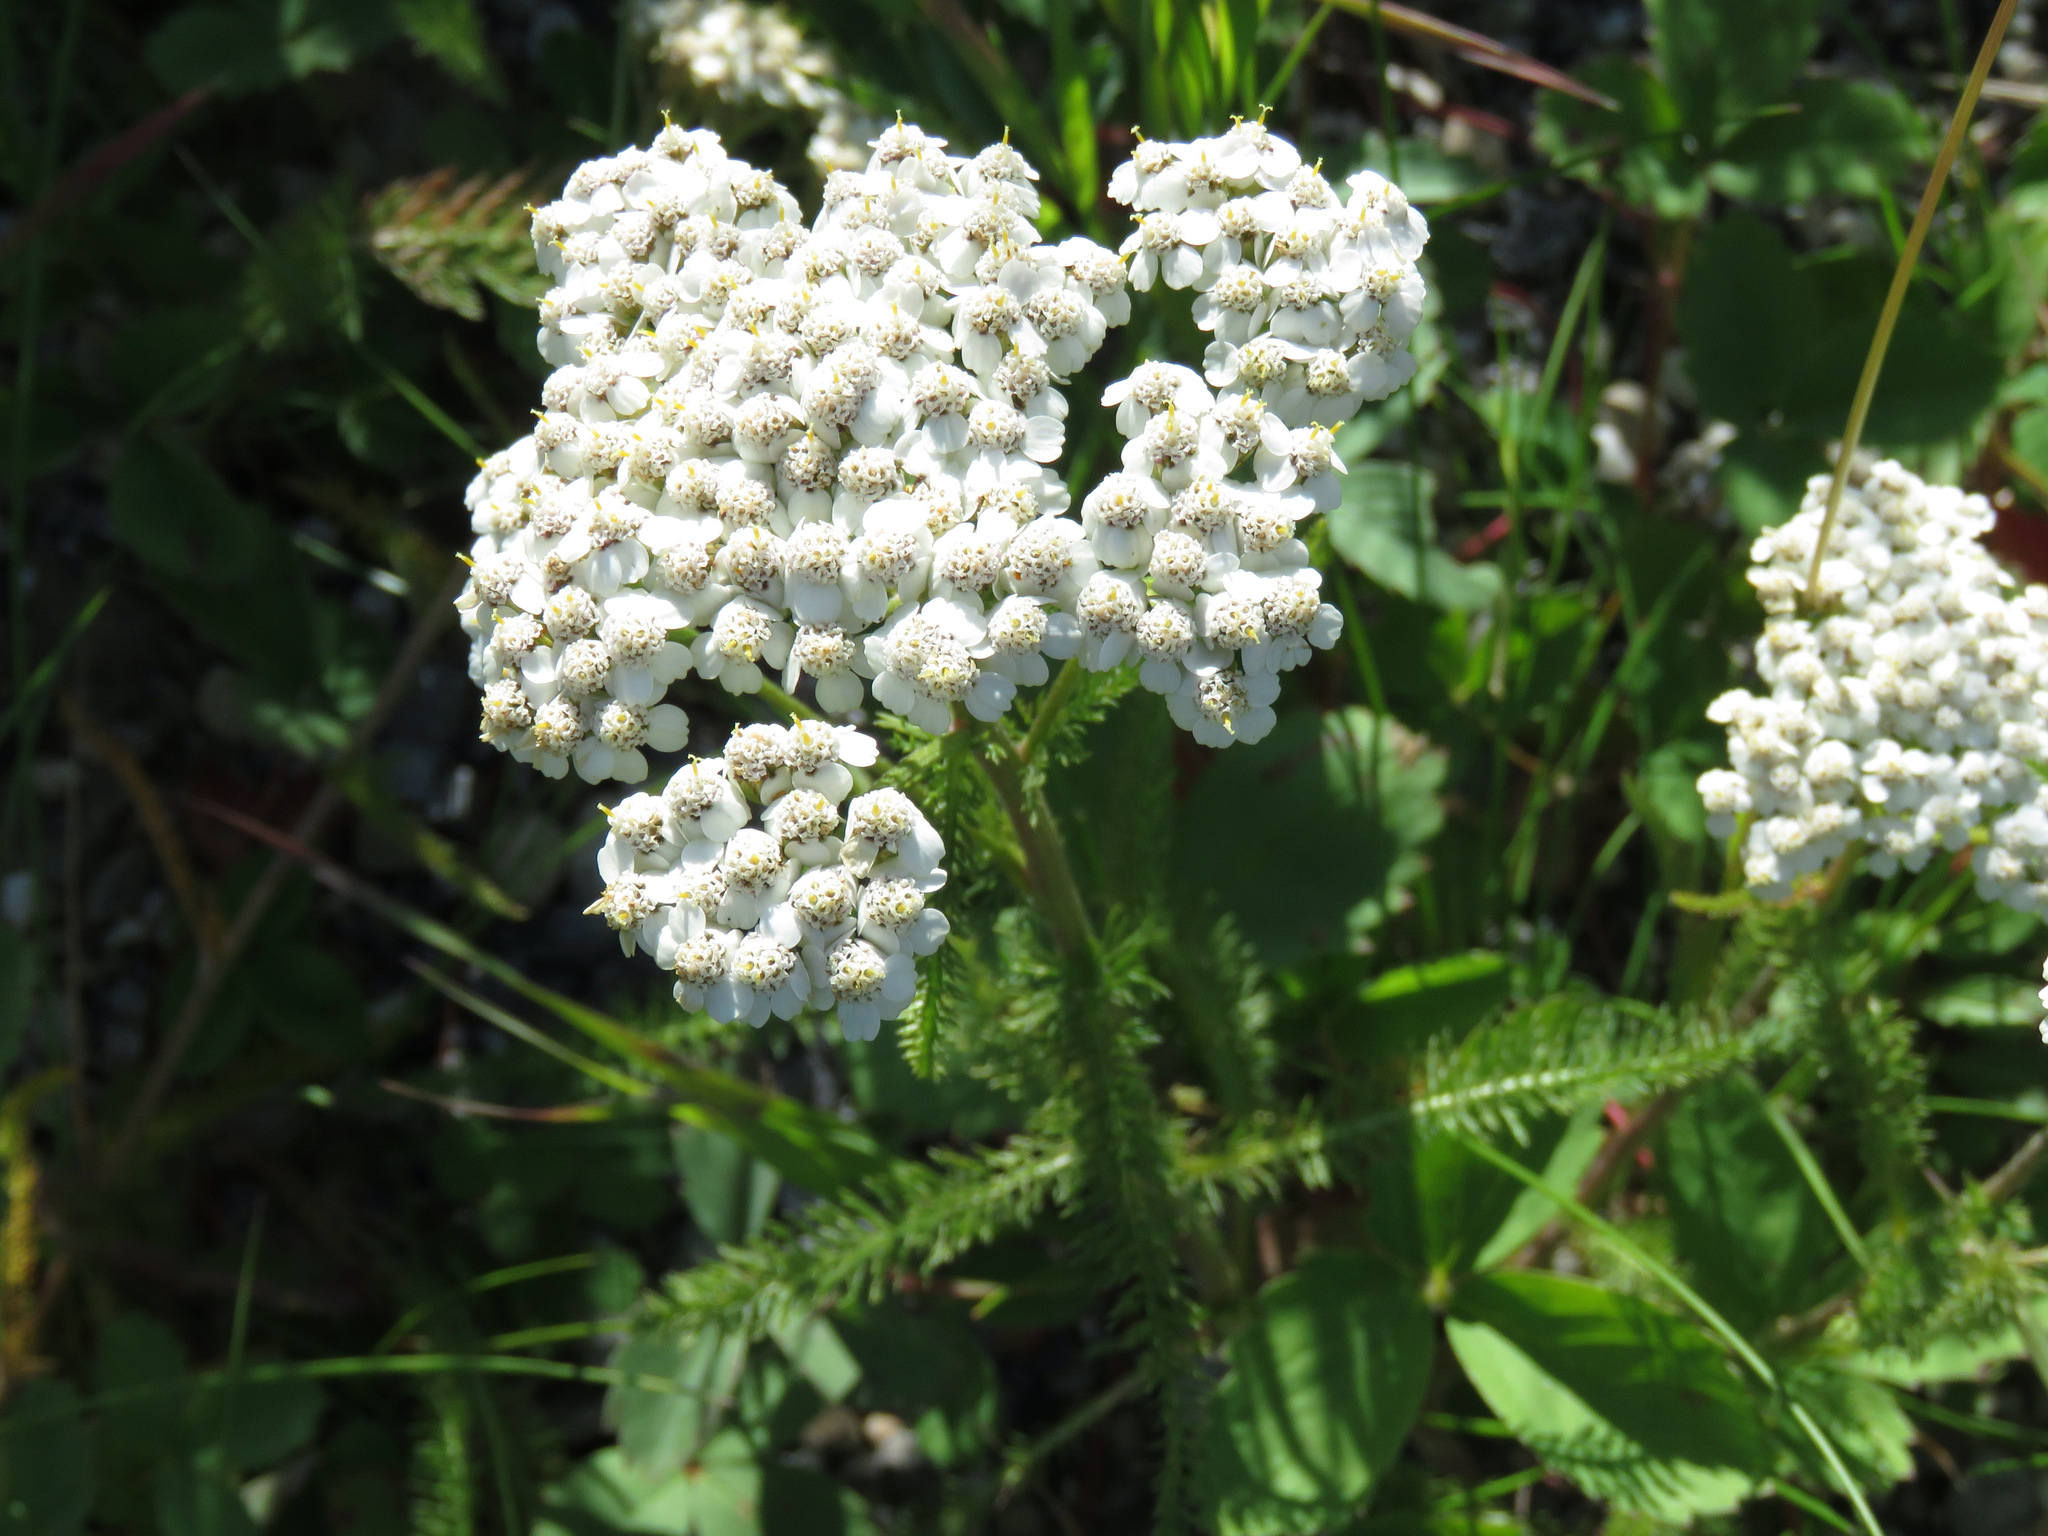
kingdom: Plantae
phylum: Tracheophyta
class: Magnoliopsida
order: Asterales
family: Asteraceae
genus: Achillea
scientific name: Achillea millefolium
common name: Yarrow
